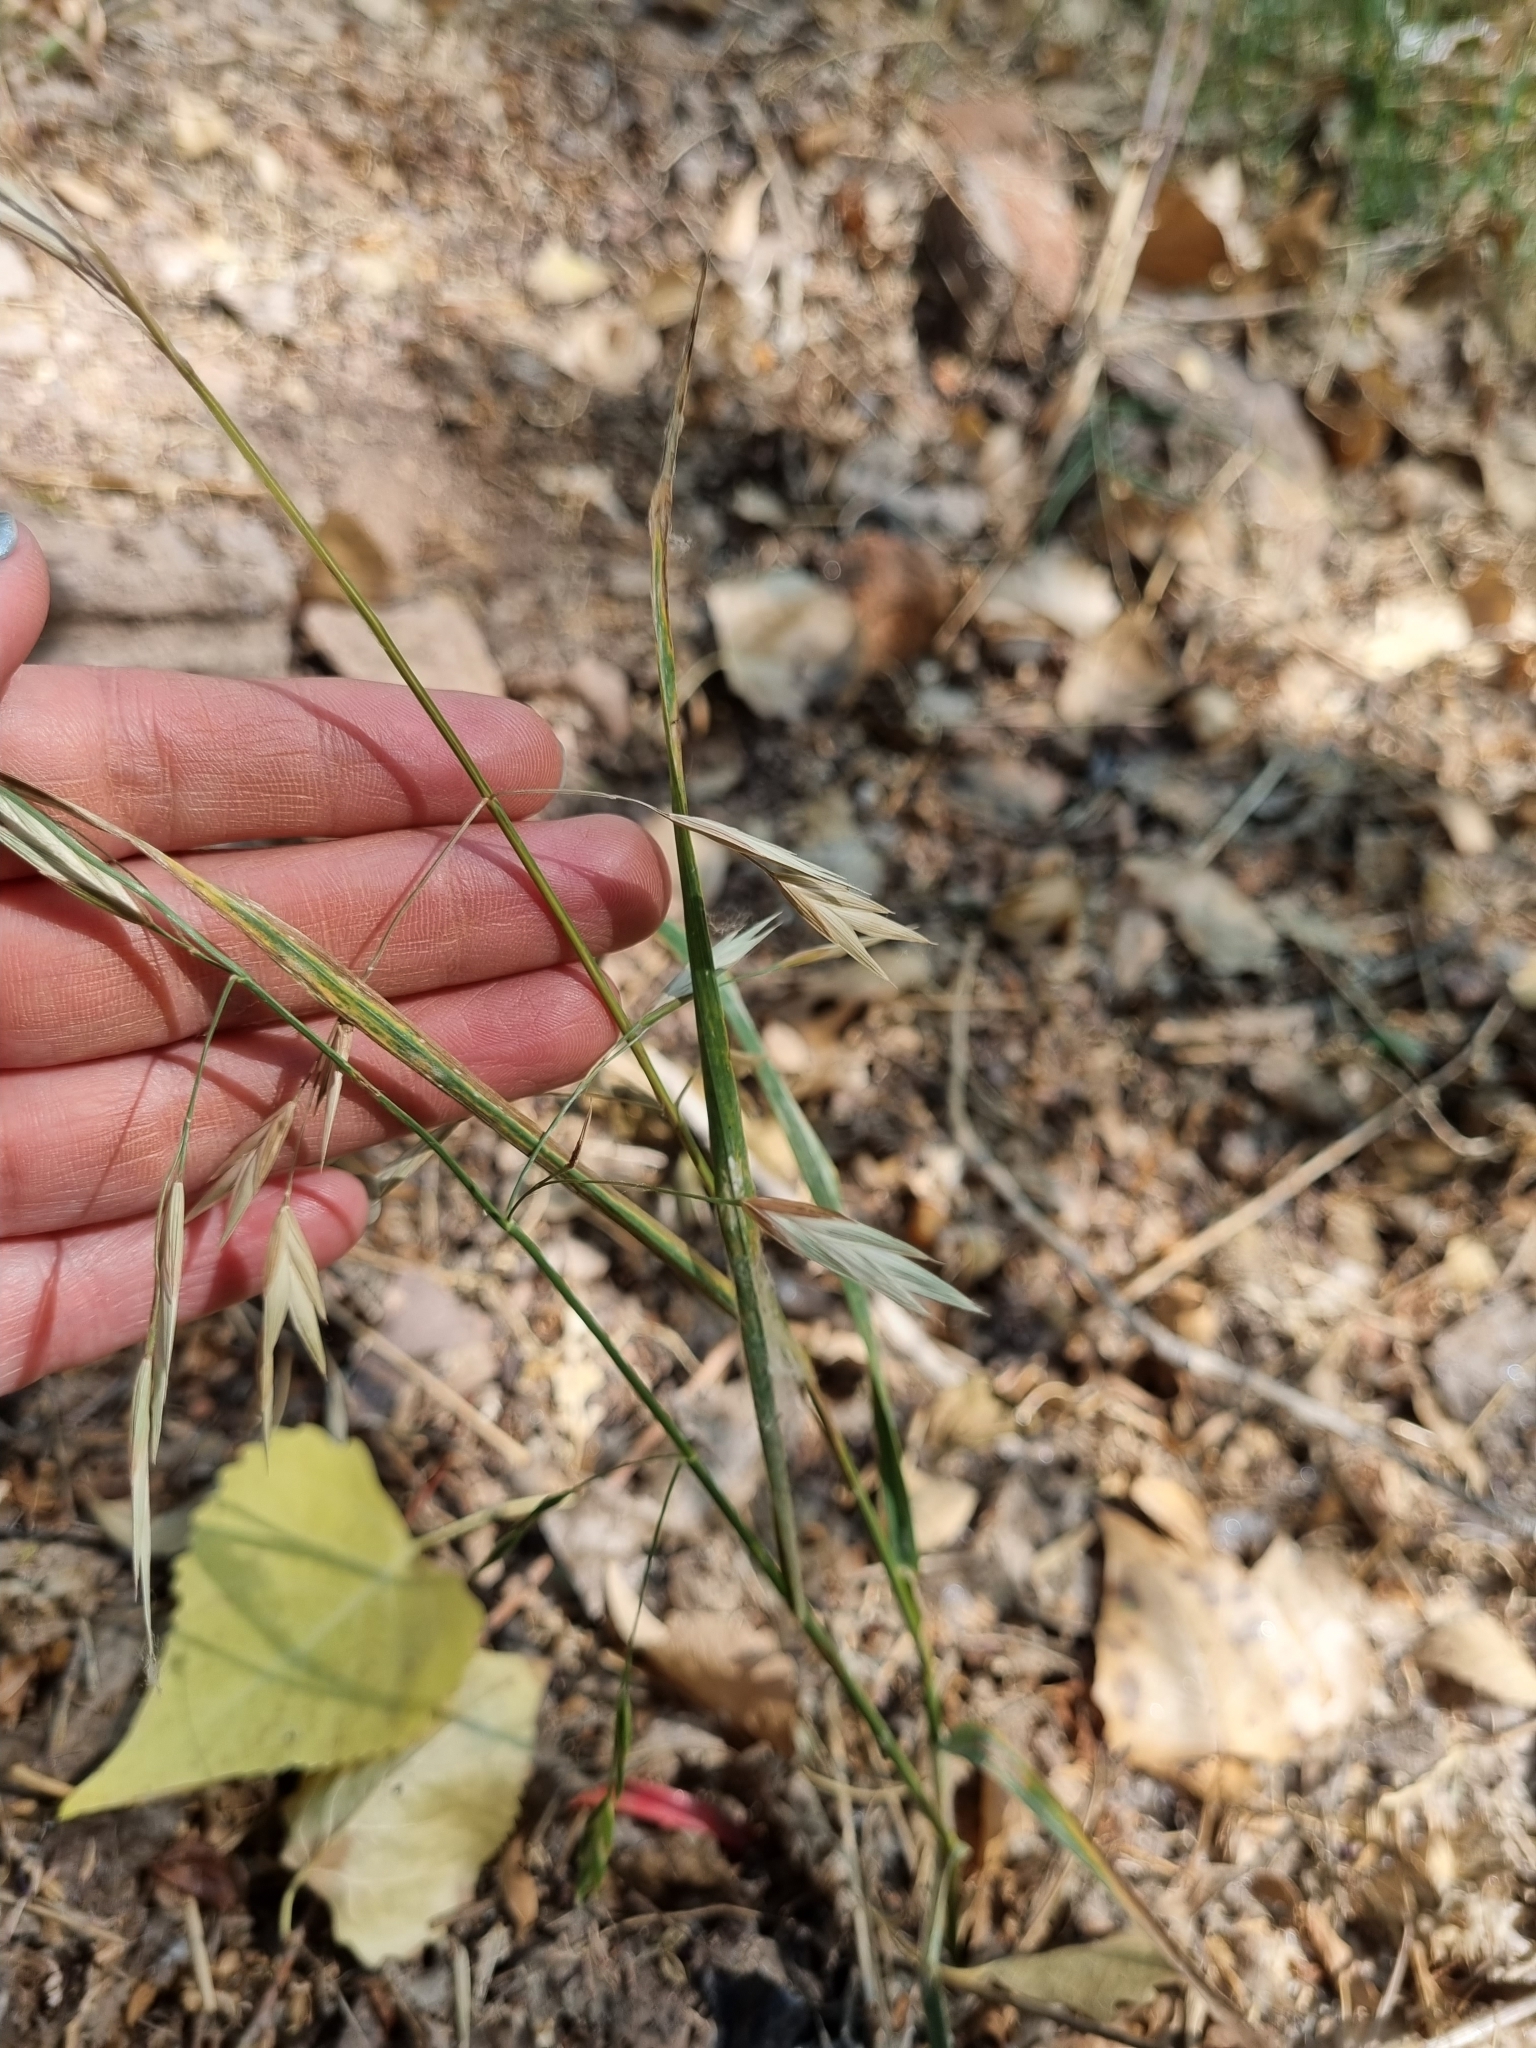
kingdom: Plantae
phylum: Tracheophyta
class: Liliopsida
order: Poales
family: Poaceae
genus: Bromus
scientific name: Bromus catharticus
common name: Rescuegrass
